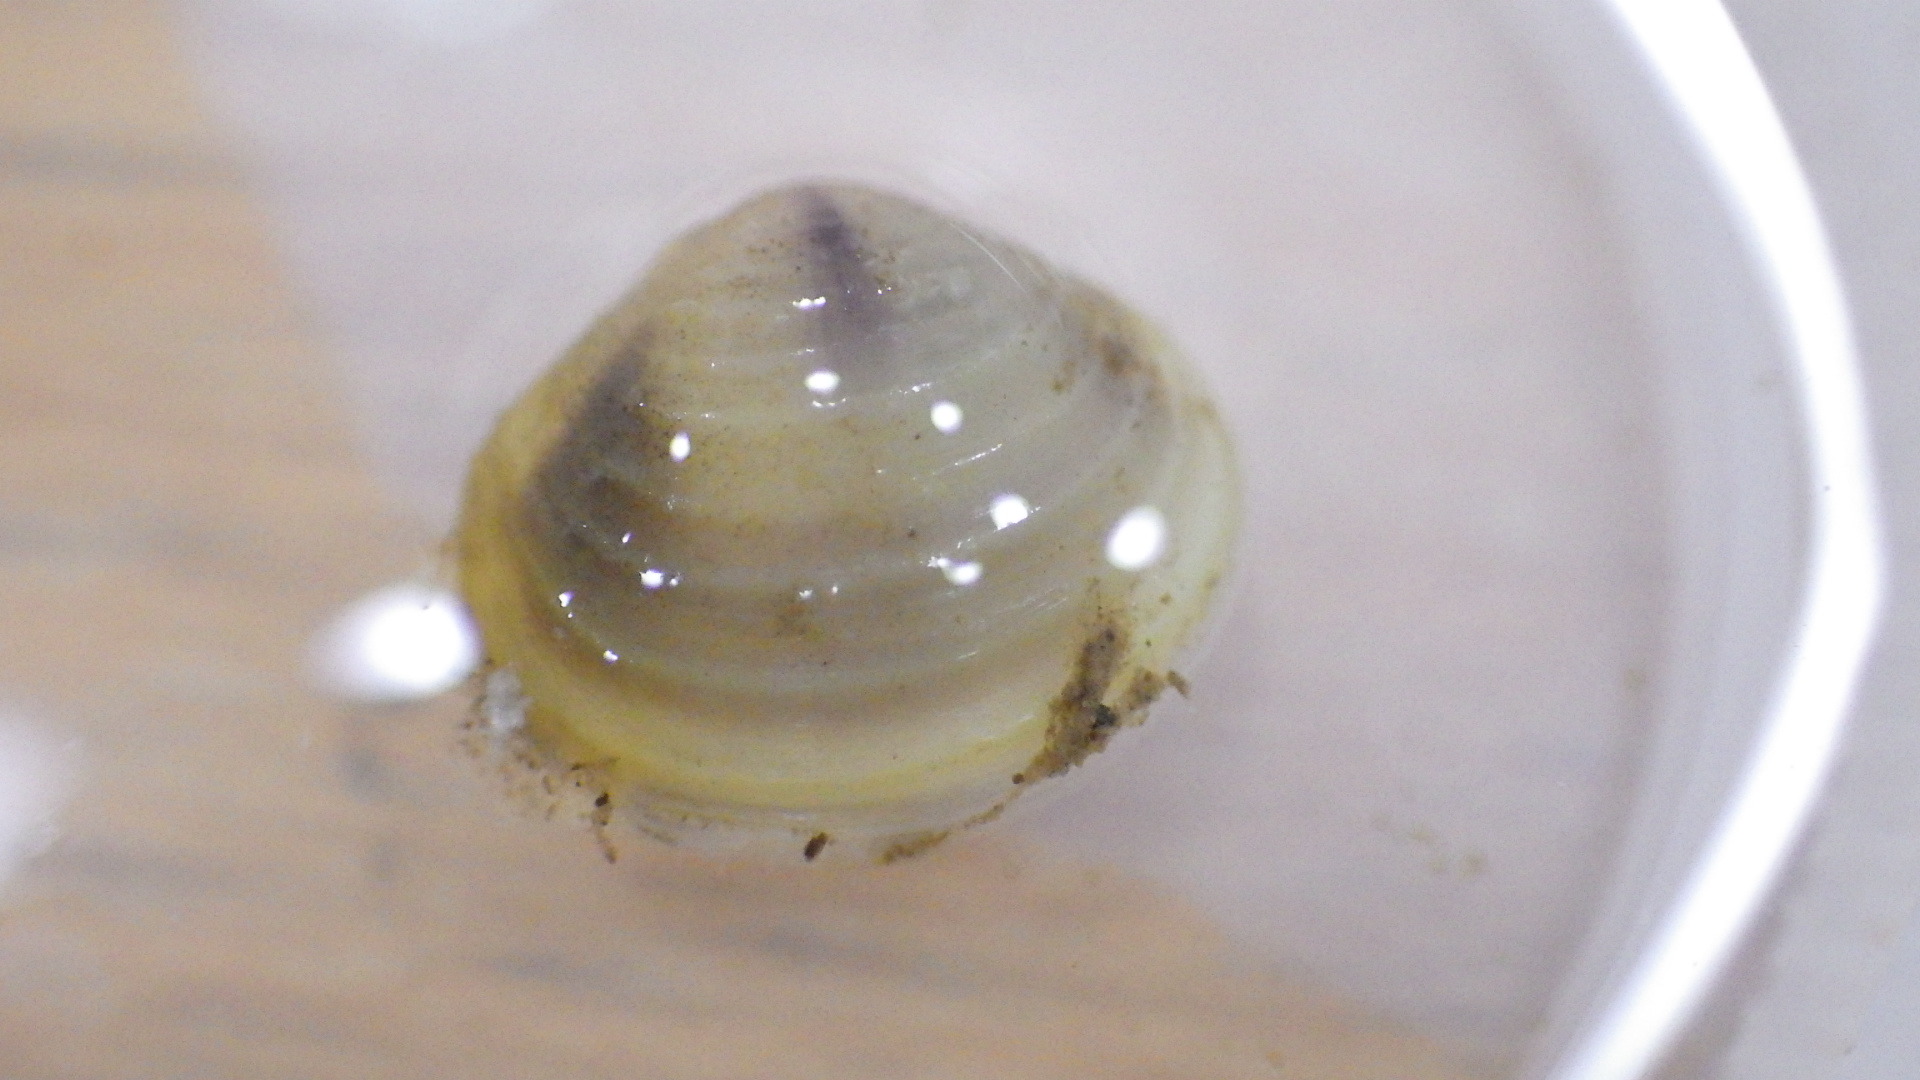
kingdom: Animalia
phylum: Mollusca
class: Bivalvia
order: Venerida
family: Cyrenidae
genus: Corbicula
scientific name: Corbicula fluminea
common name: Asian clam
